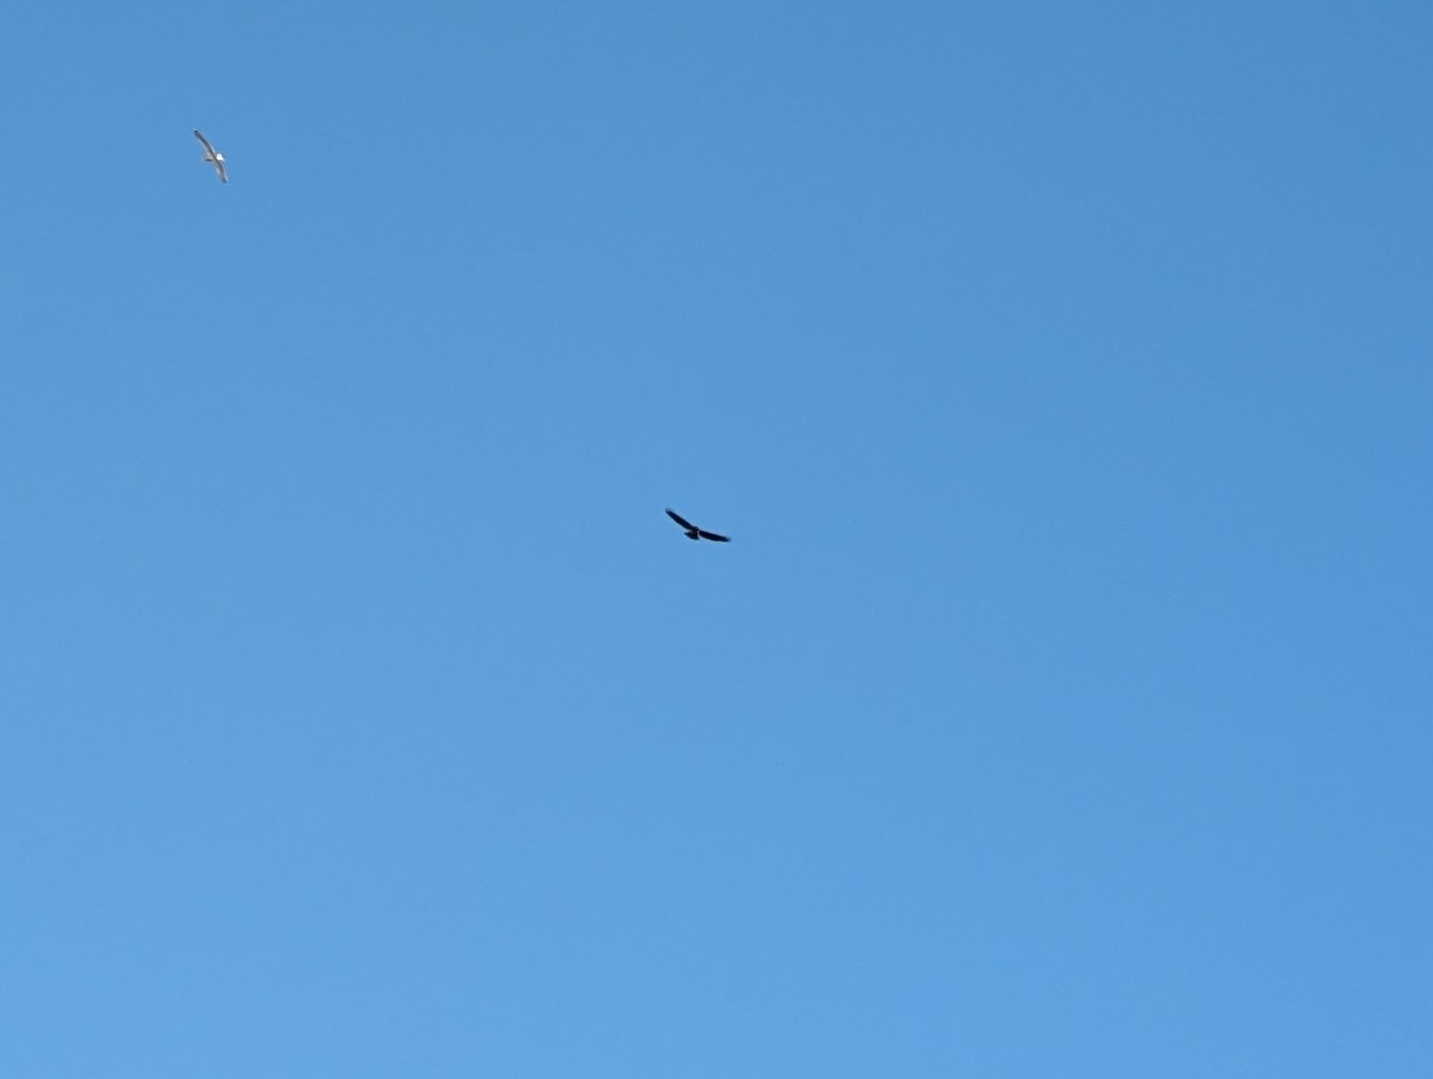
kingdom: Animalia
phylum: Chordata
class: Aves
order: Accipitriformes
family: Accipitridae
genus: Buteo
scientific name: Buteo jamaicensis
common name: Red-tailed hawk
